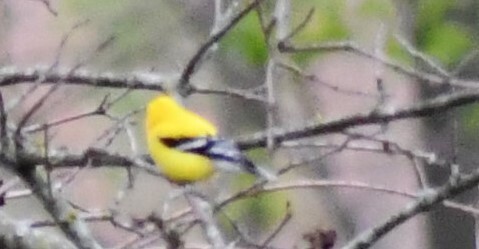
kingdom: Animalia
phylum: Chordata
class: Aves
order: Passeriformes
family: Fringillidae
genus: Spinus
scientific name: Spinus tristis
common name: American goldfinch
